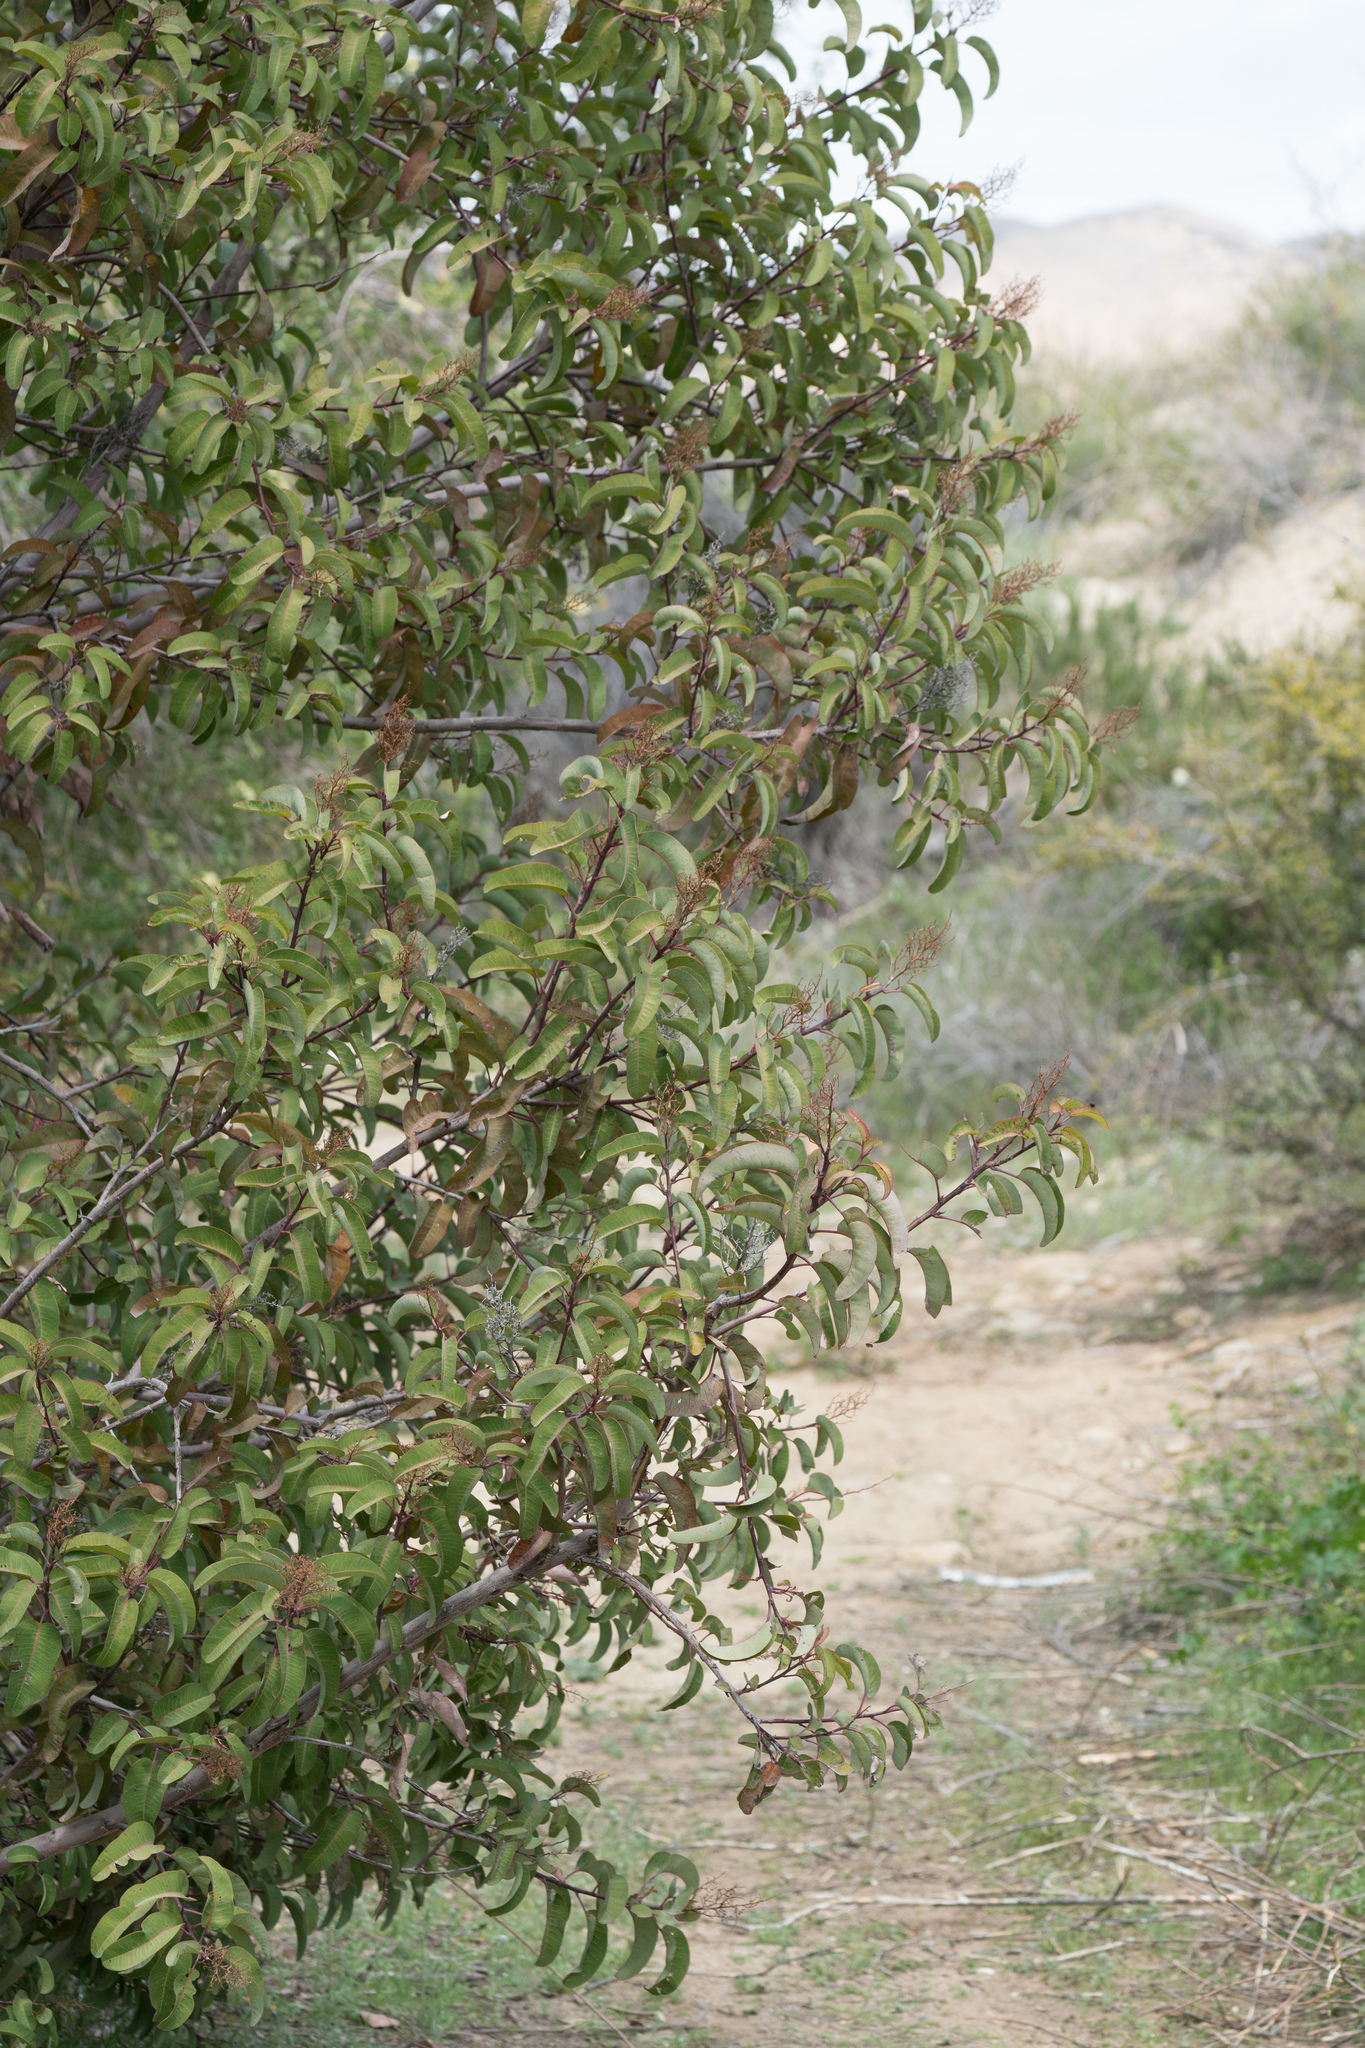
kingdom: Plantae
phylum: Tracheophyta
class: Magnoliopsida
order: Sapindales
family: Anacardiaceae
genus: Malosma
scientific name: Malosma laurina
